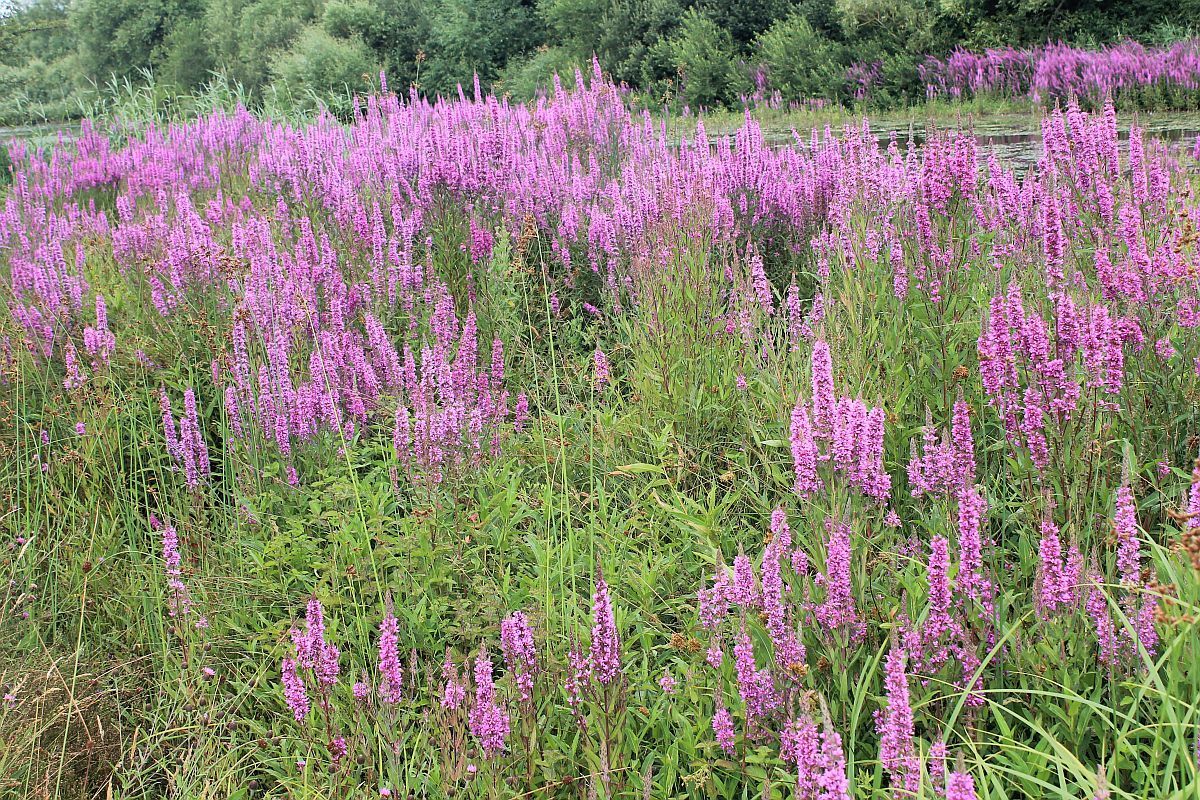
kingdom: Plantae
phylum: Tracheophyta
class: Magnoliopsida
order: Myrtales
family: Lythraceae
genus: Lythrum
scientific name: Lythrum salicaria
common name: Purple loosestrife
